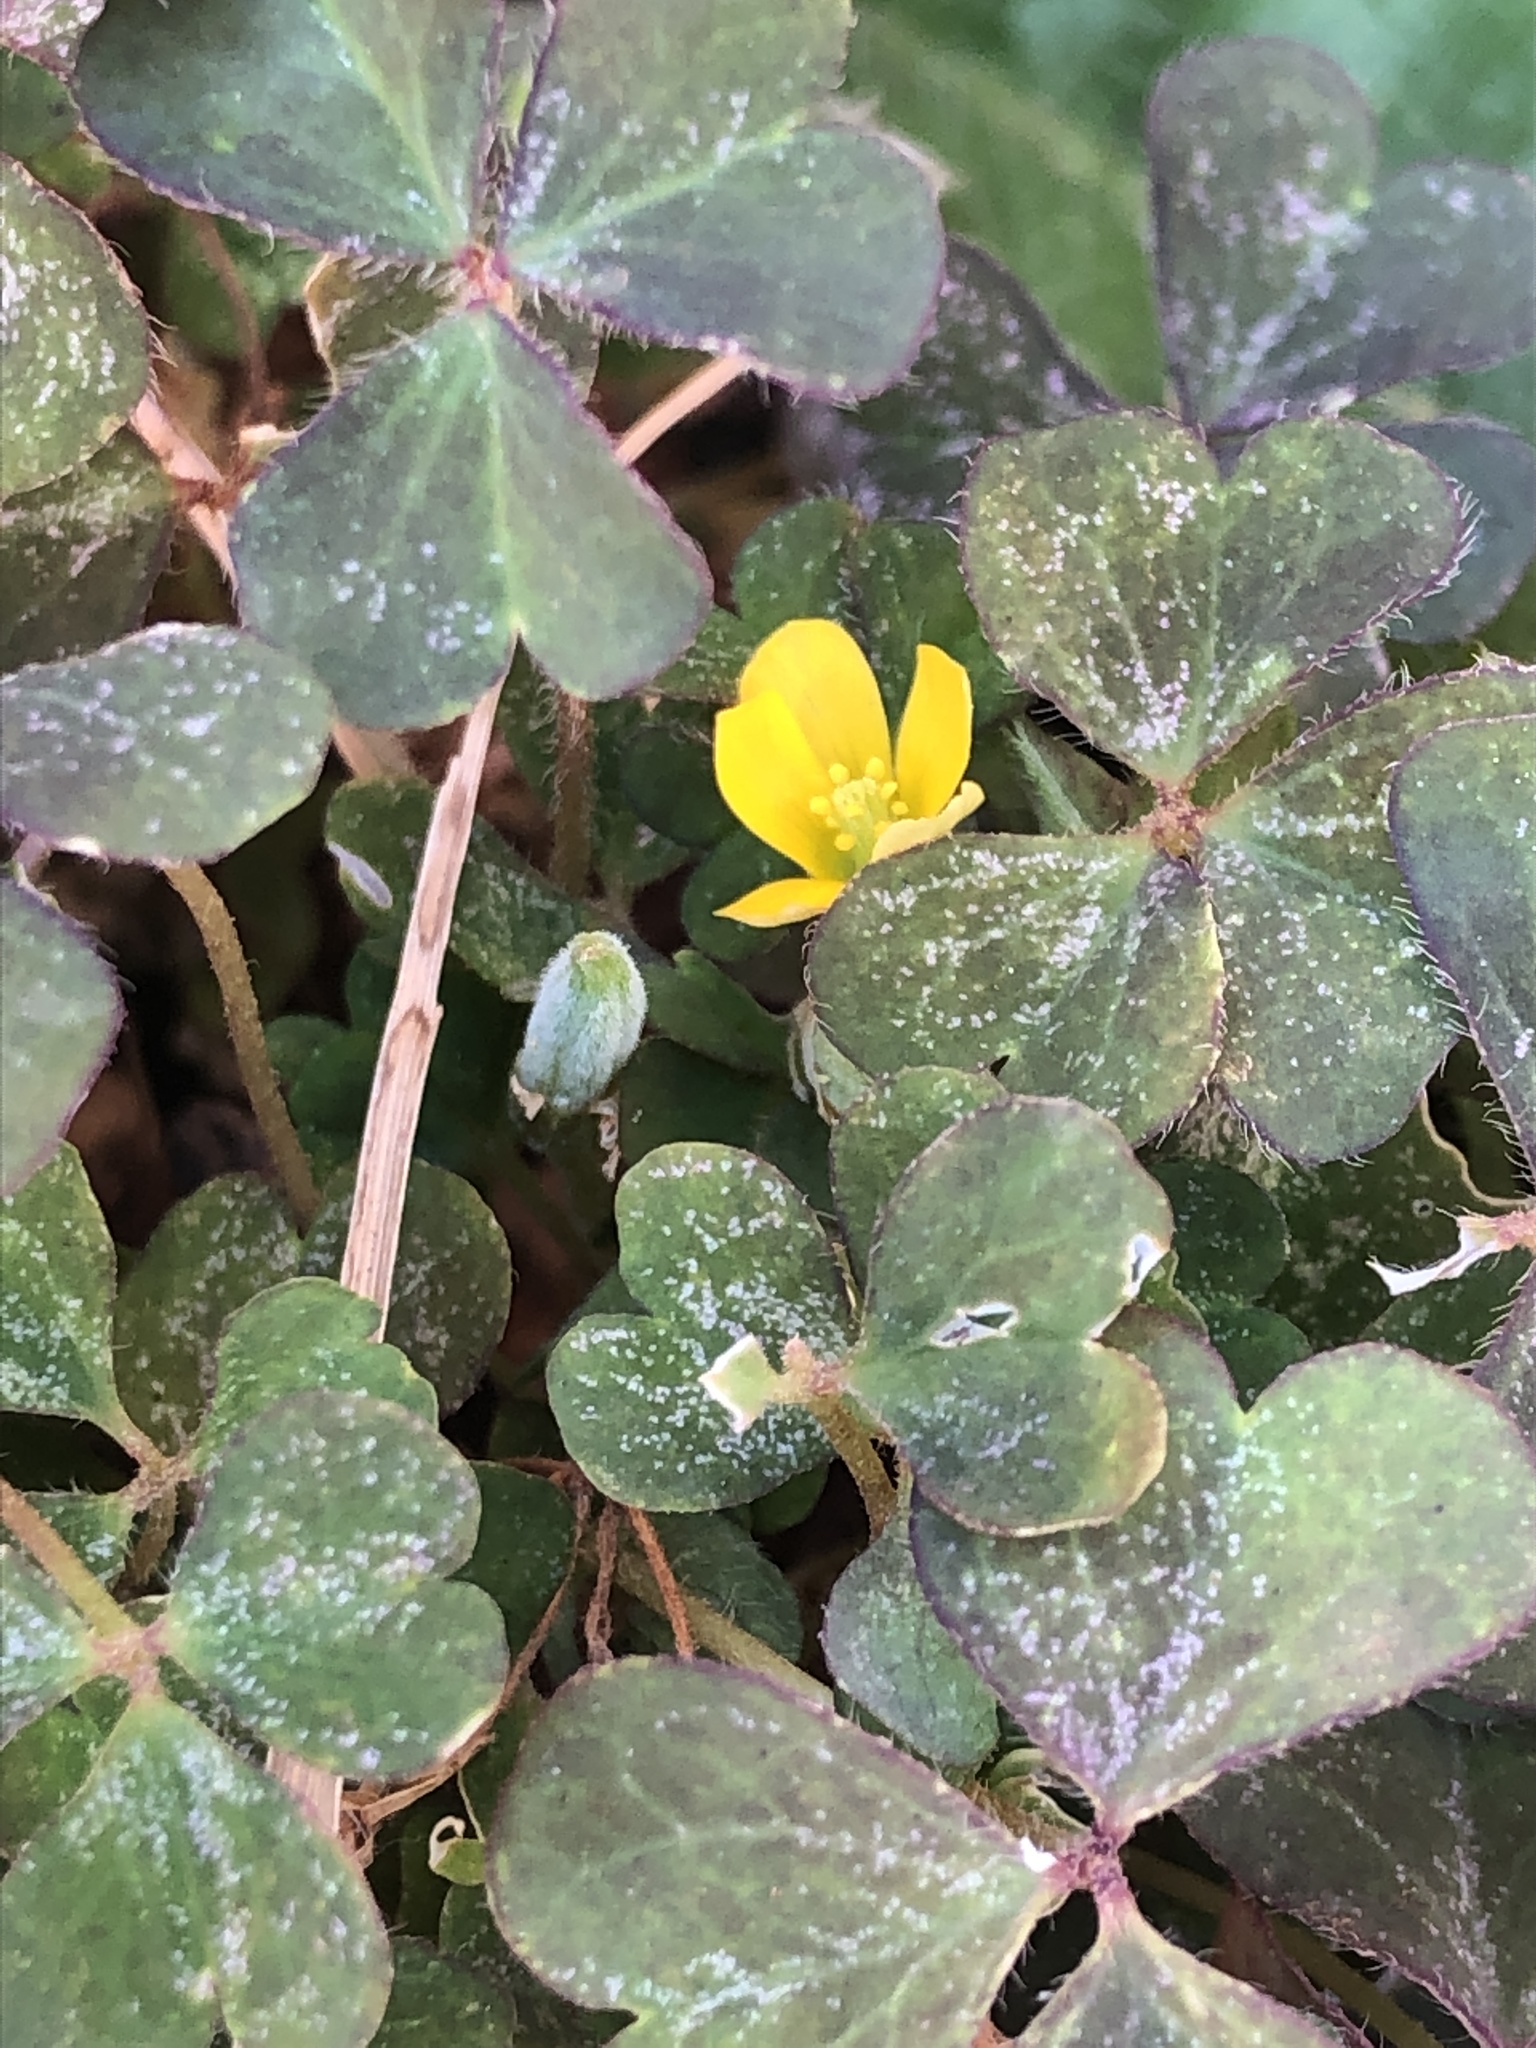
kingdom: Plantae
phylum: Tracheophyta
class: Magnoliopsida
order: Oxalidales
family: Oxalidaceae
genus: Oxalis
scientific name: Oxalis corniculata
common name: Procumbent yellow-sorrel
